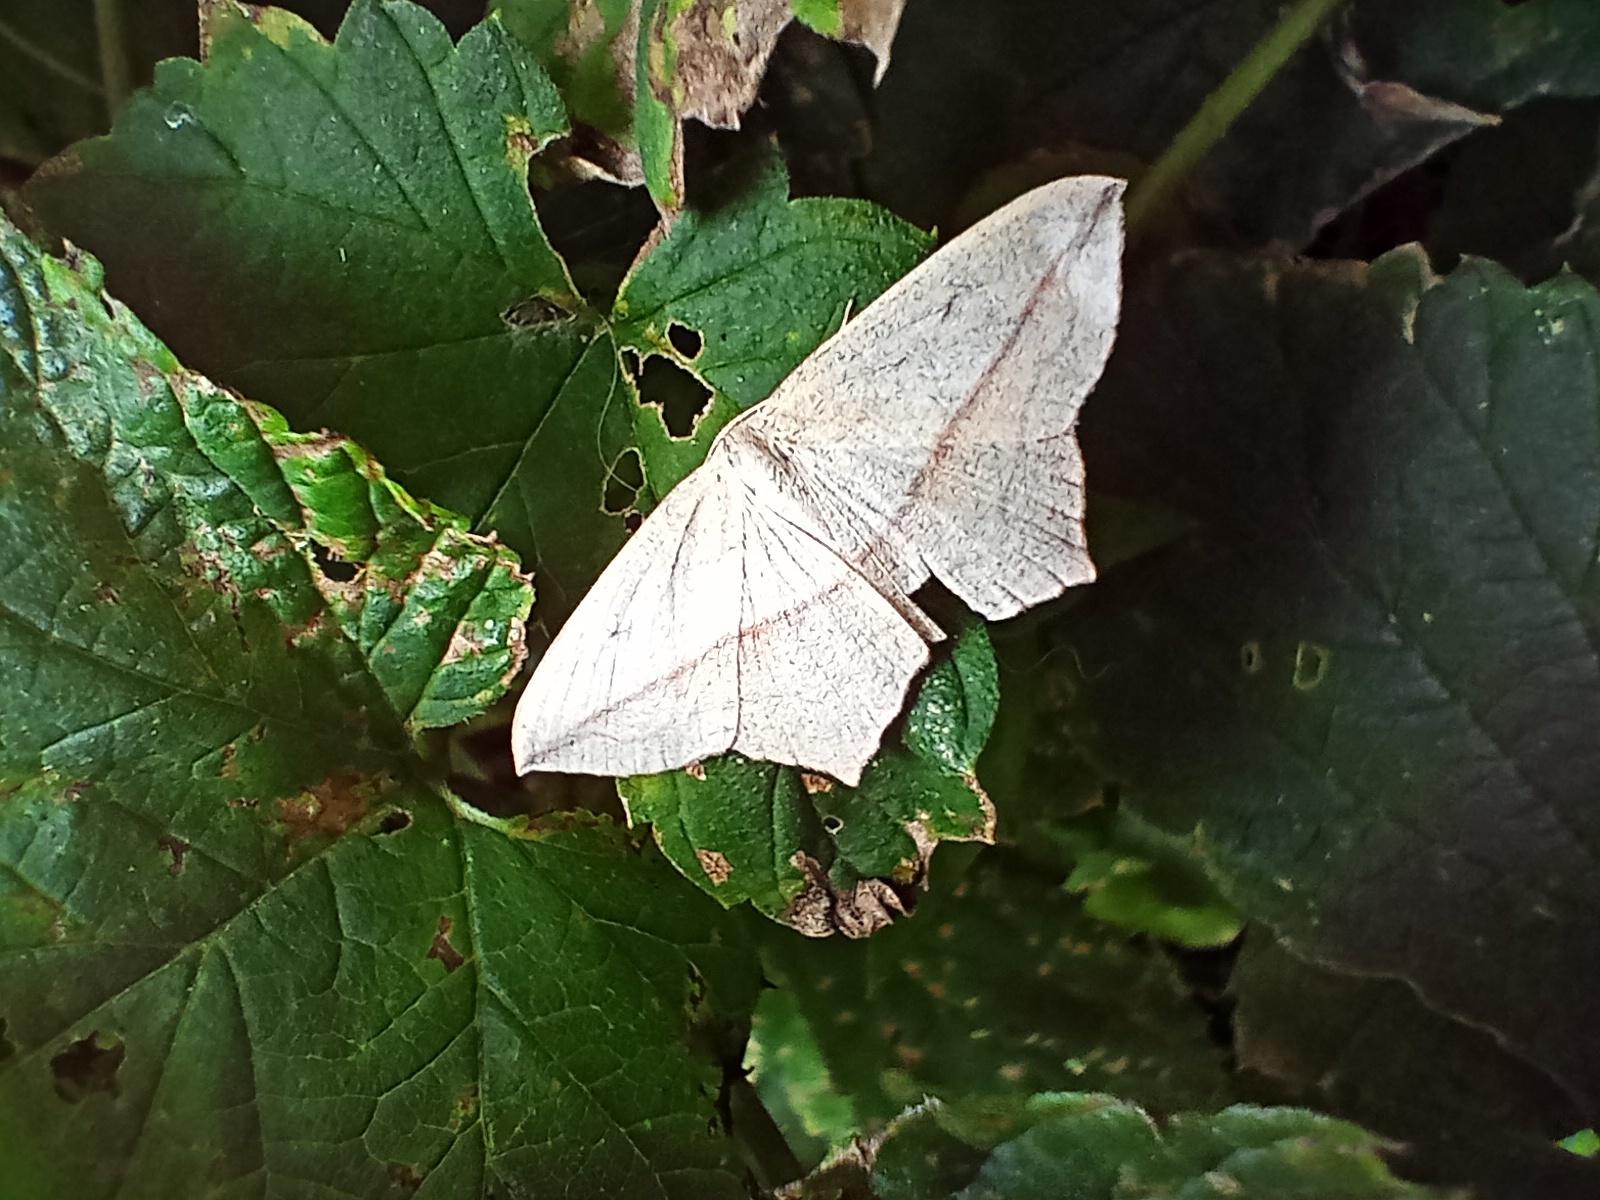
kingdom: Animalia
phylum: Arthropoda
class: Insecta
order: Lepidoptera
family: Geometridae
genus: Timandra
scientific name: Timandra comae
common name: Blood-vein
